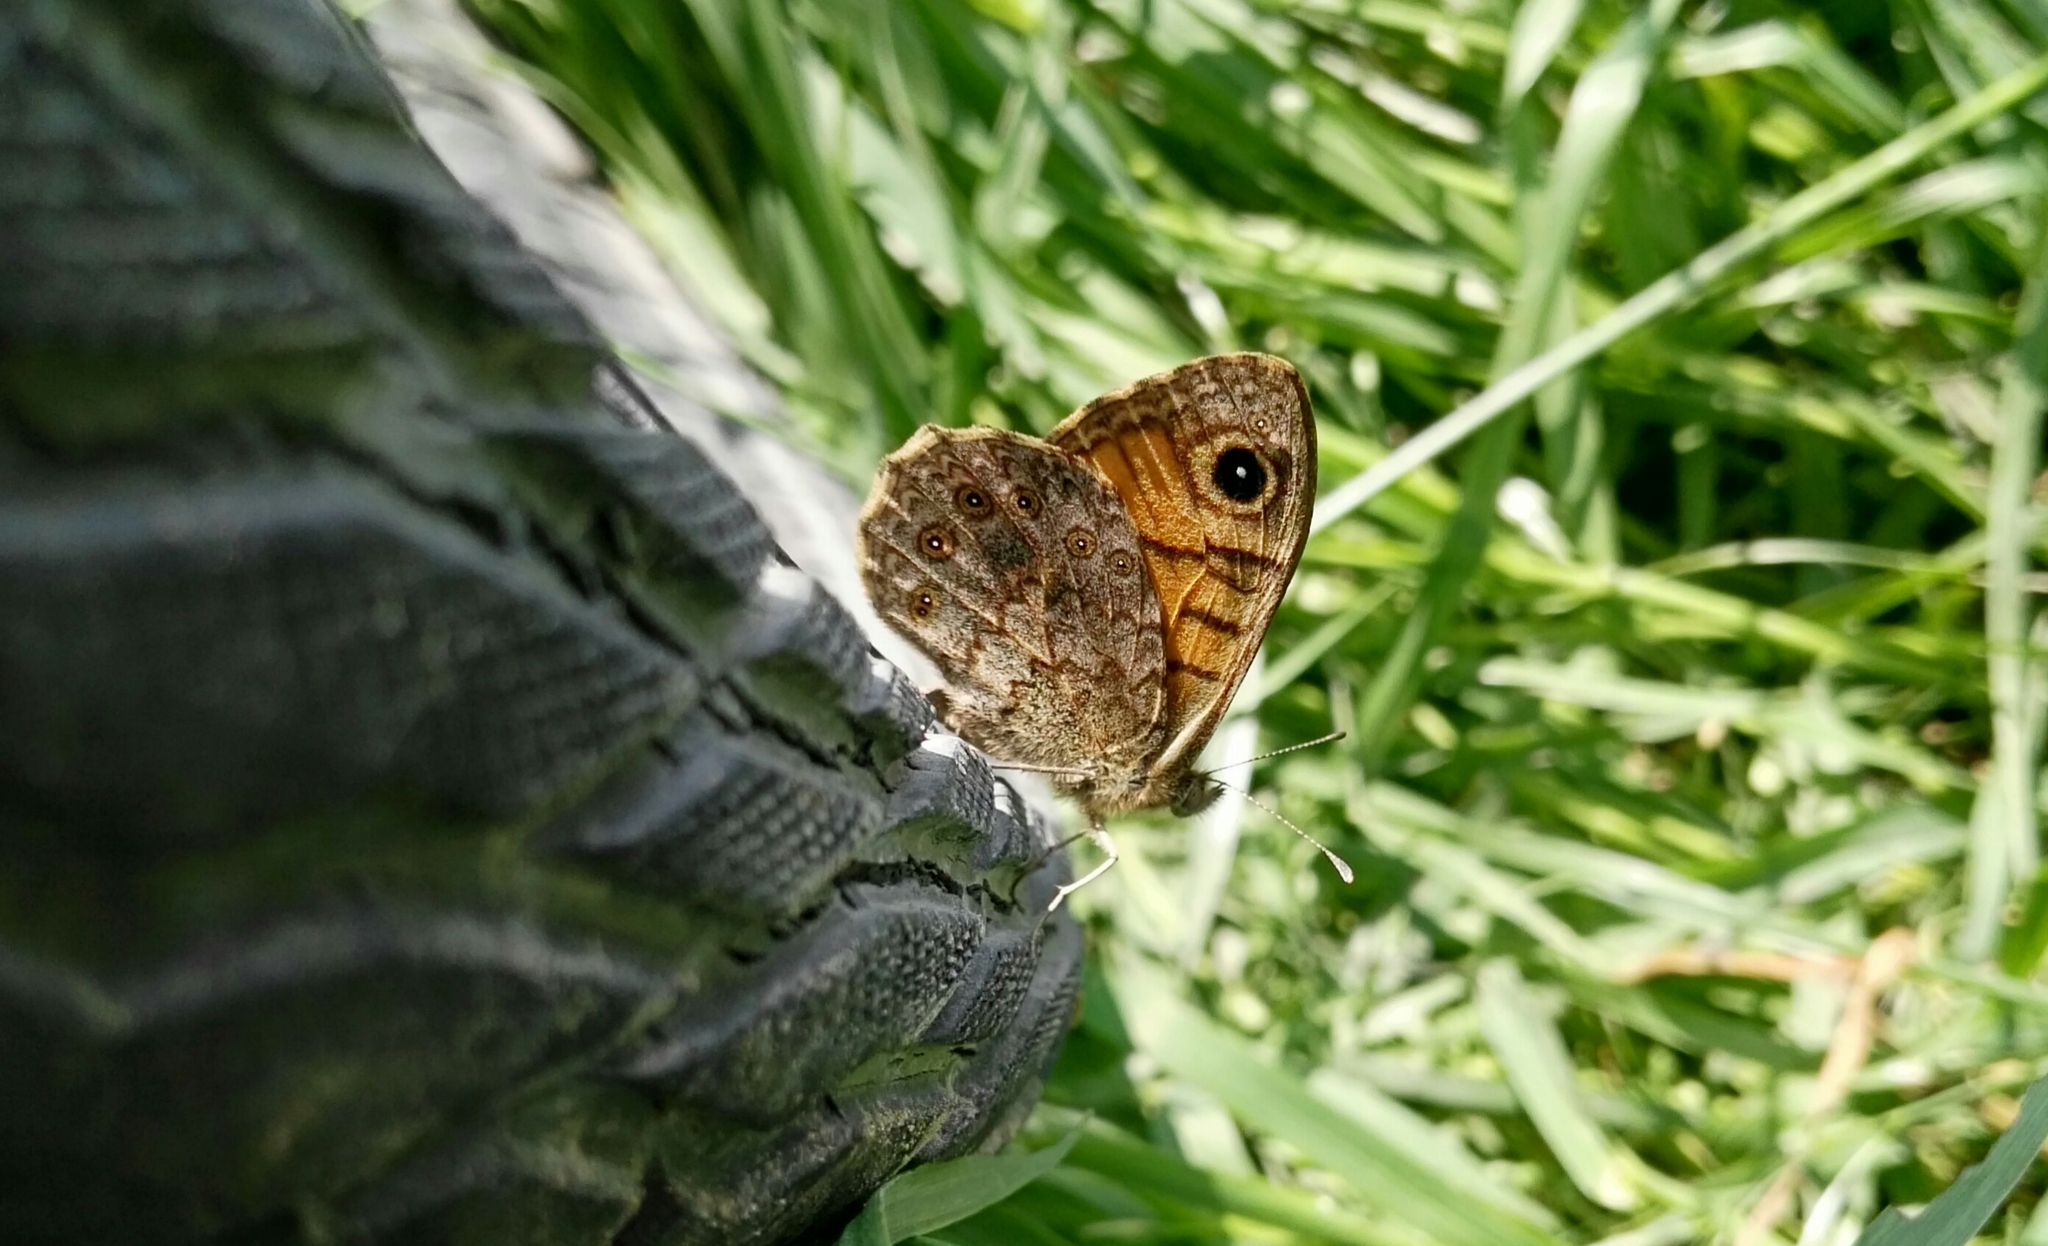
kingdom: Animalia
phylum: Arthropoda
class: Insecta
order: Lepidoptera
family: Nymphalidae
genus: Pararge
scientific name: Pararge Lasiommata megera
